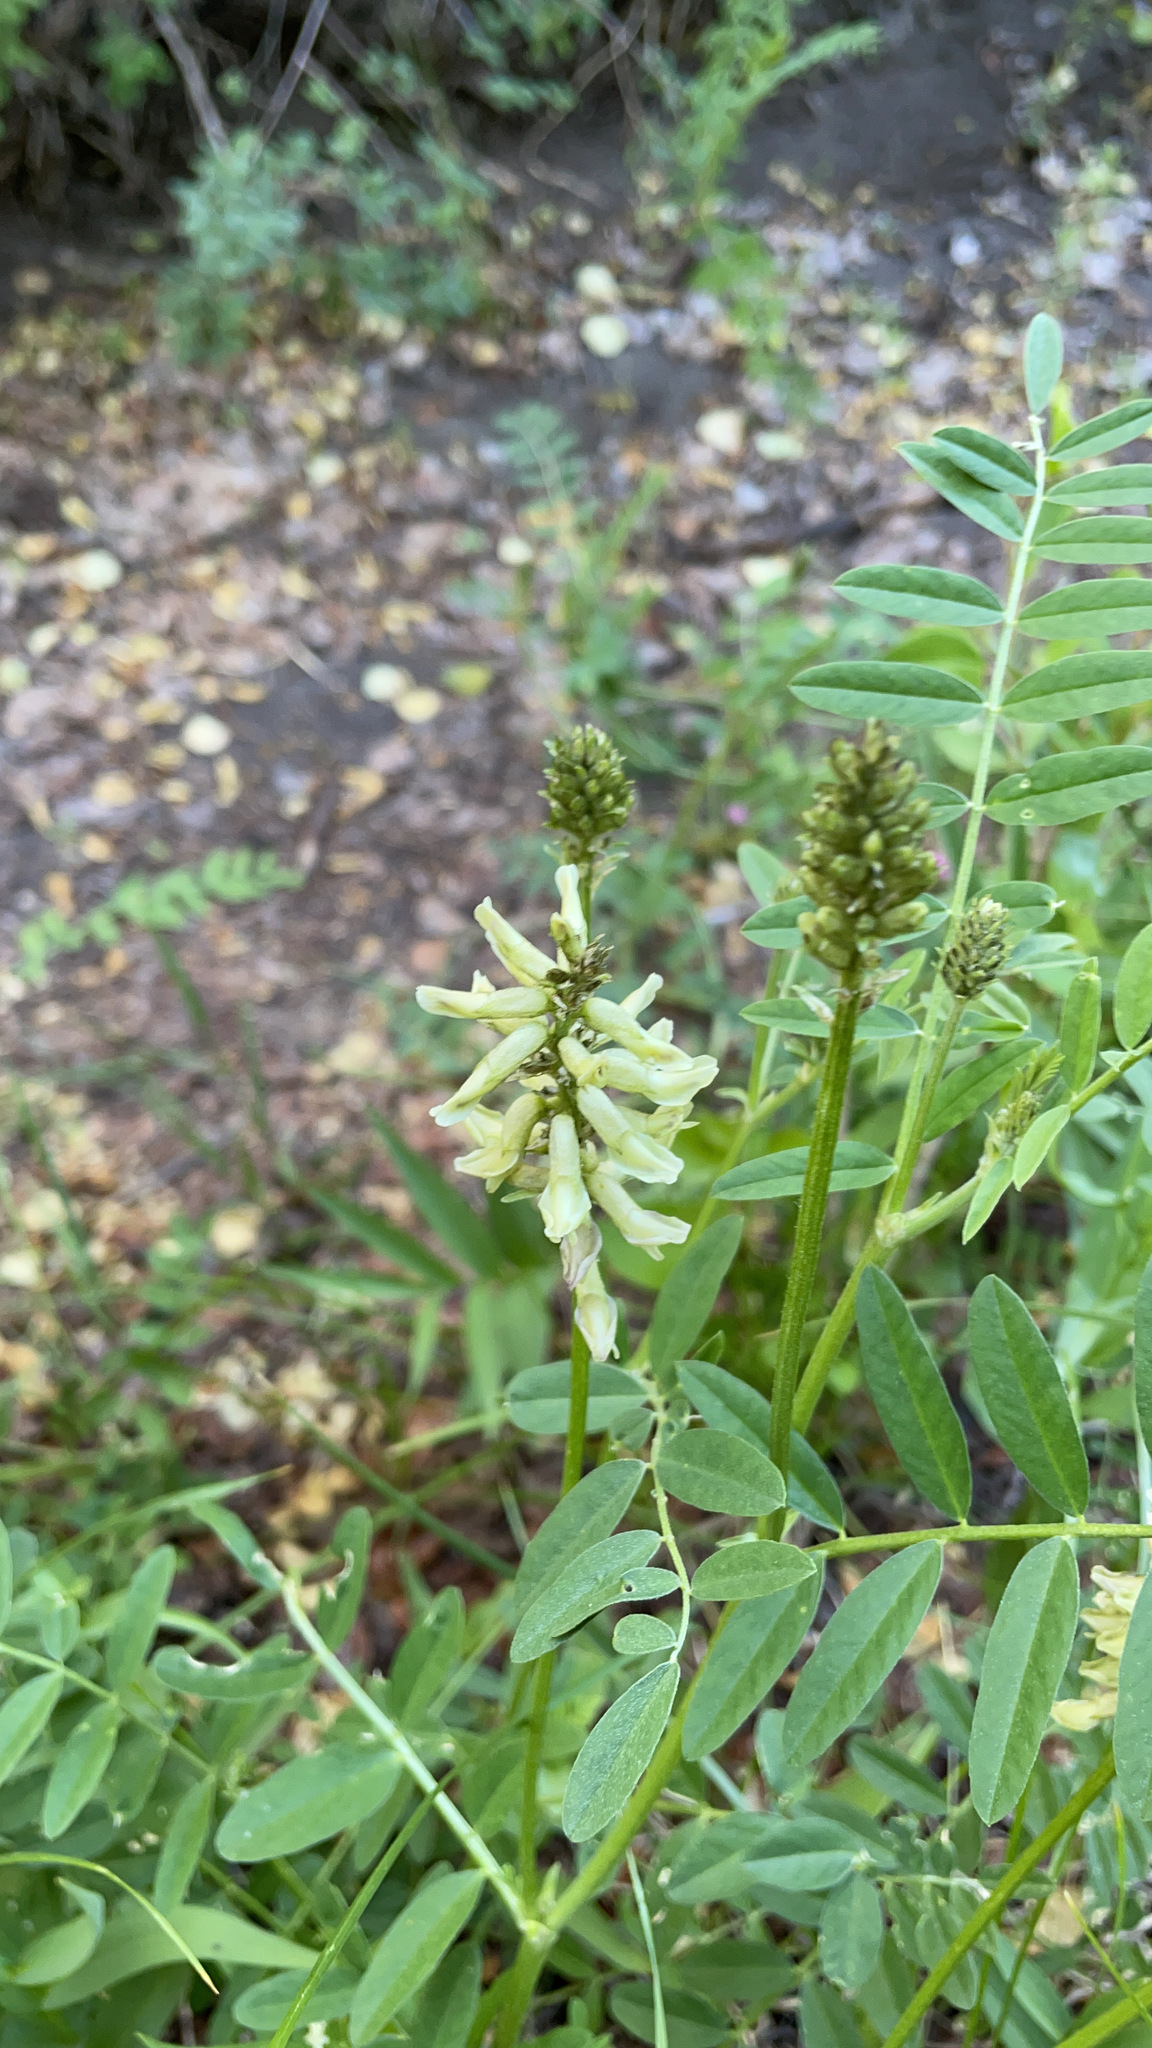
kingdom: Plantae
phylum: Tracheophyta
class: Magnoliopsida
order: Fabales
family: Fabaceae
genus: Astragalus
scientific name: Astragalus canadensis
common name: Canada milk-vetch
